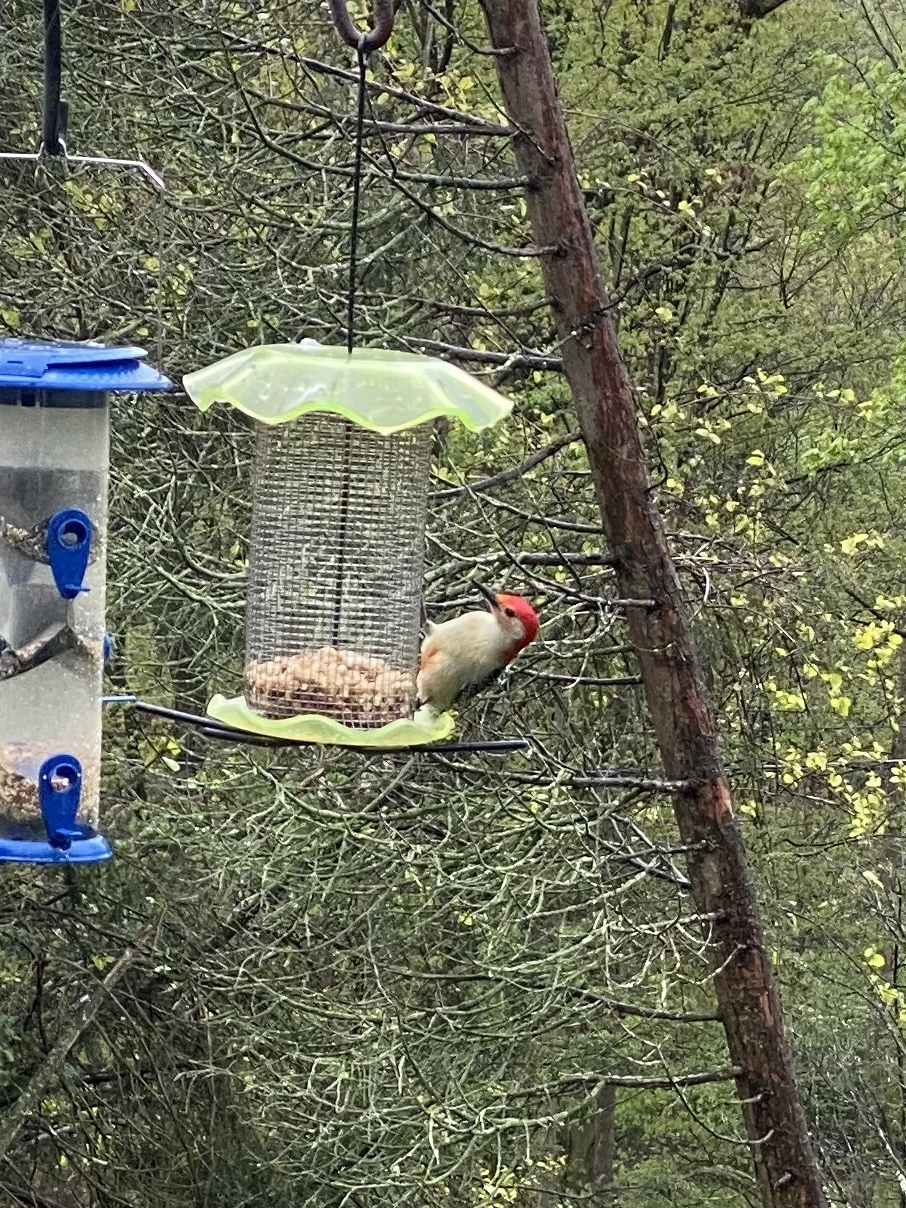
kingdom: Animalia
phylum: Chordata
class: Aves
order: Piciformes
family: Picidae
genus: Melanerpes
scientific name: Melanerpes carolinus
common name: Red-bellied woodpecker
